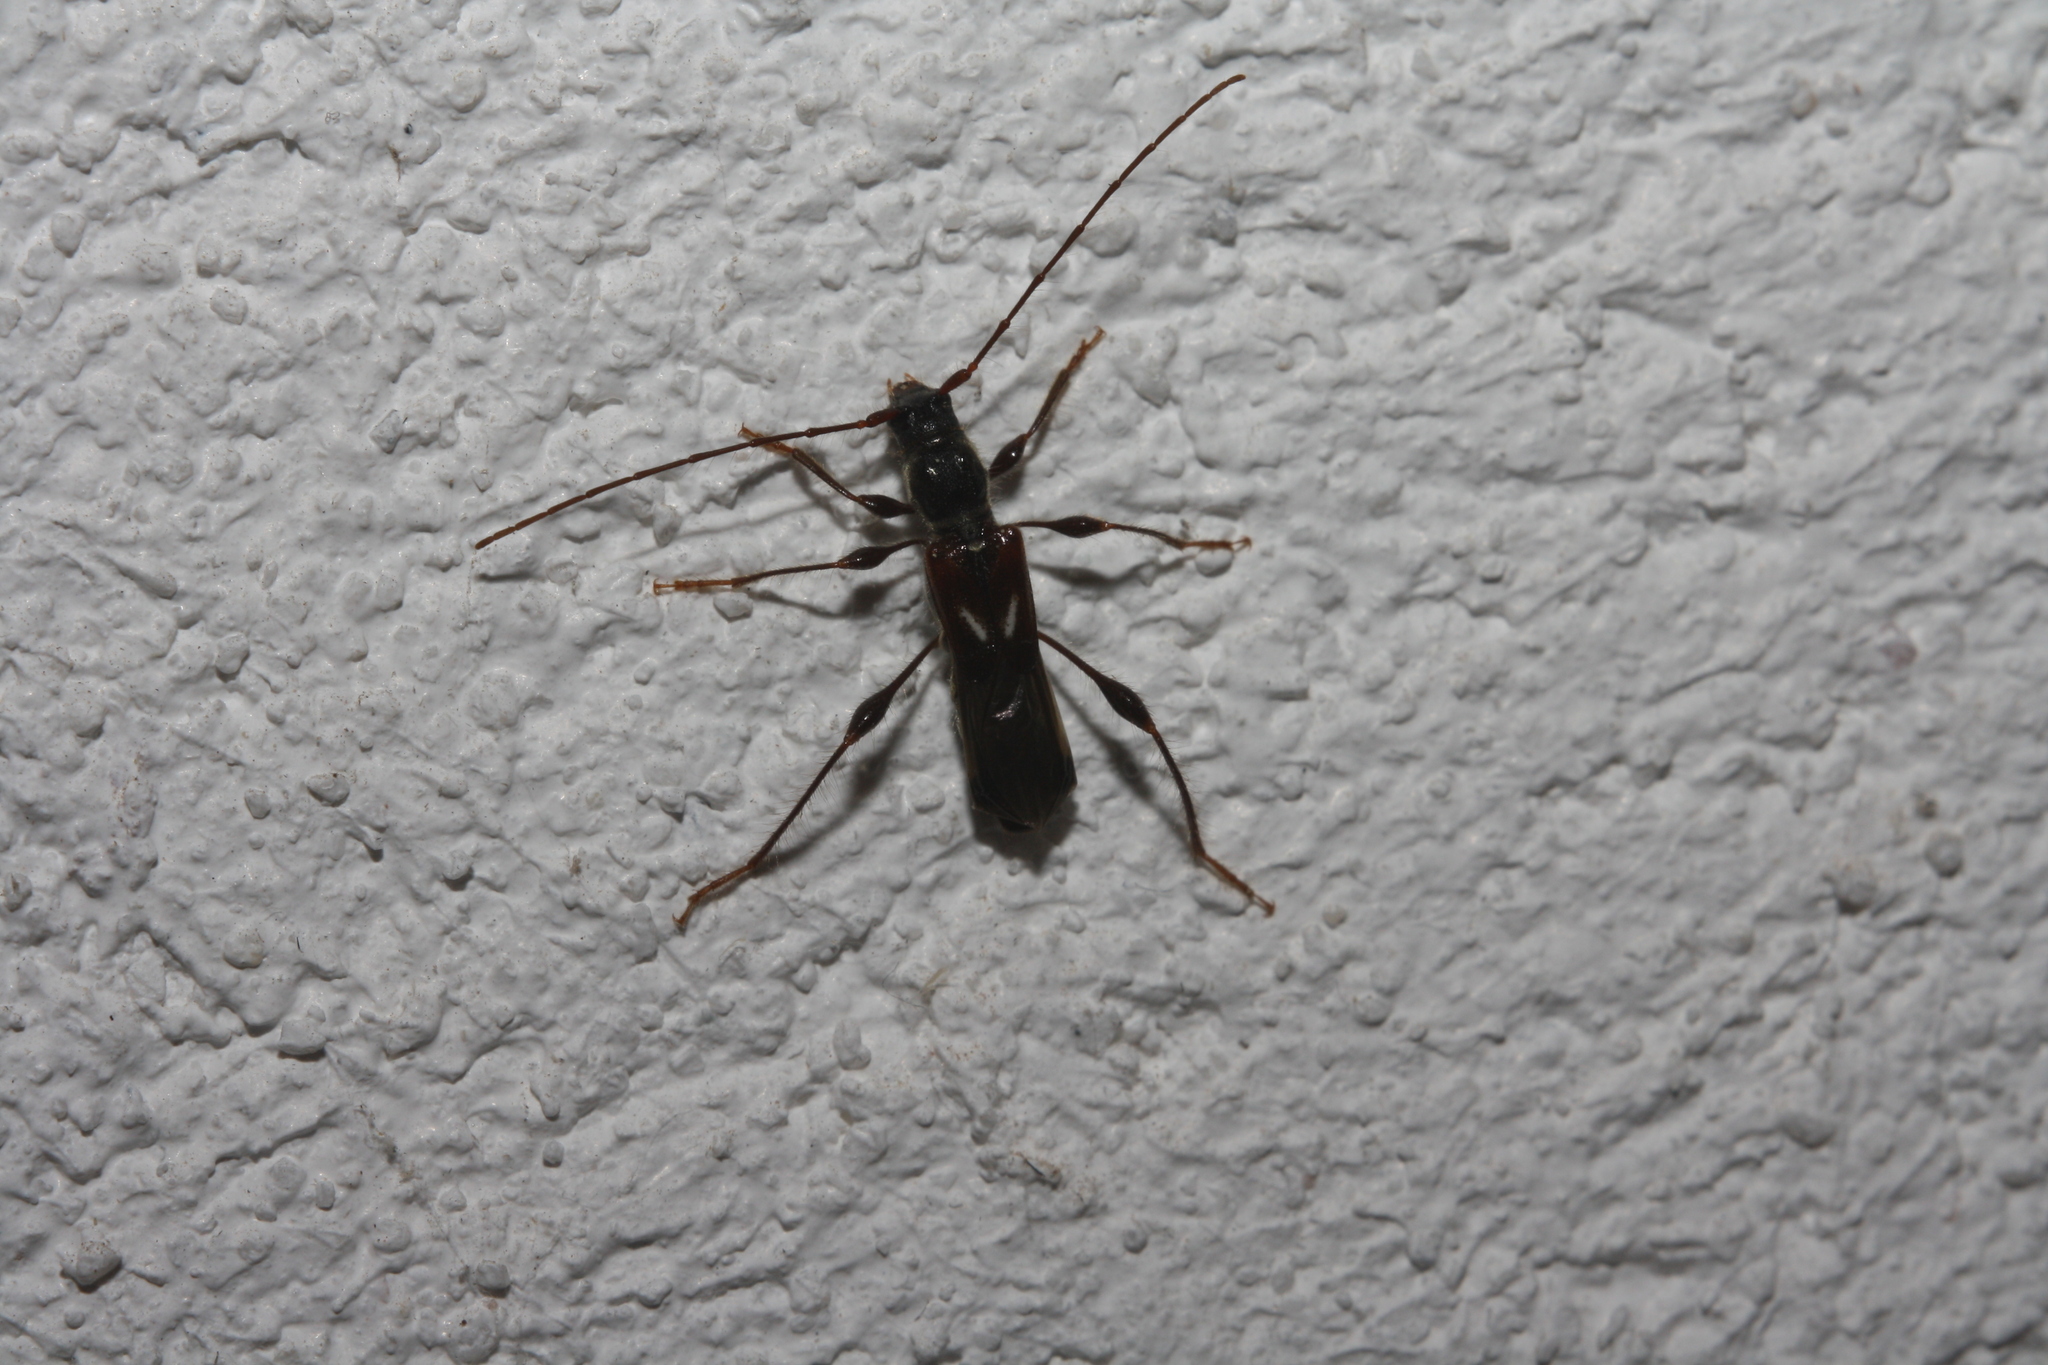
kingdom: Animalia
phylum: Arthropoda
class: Insecta
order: Coleoptera
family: Cerambycidae
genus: Molorchus
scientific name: Molorchus minor
